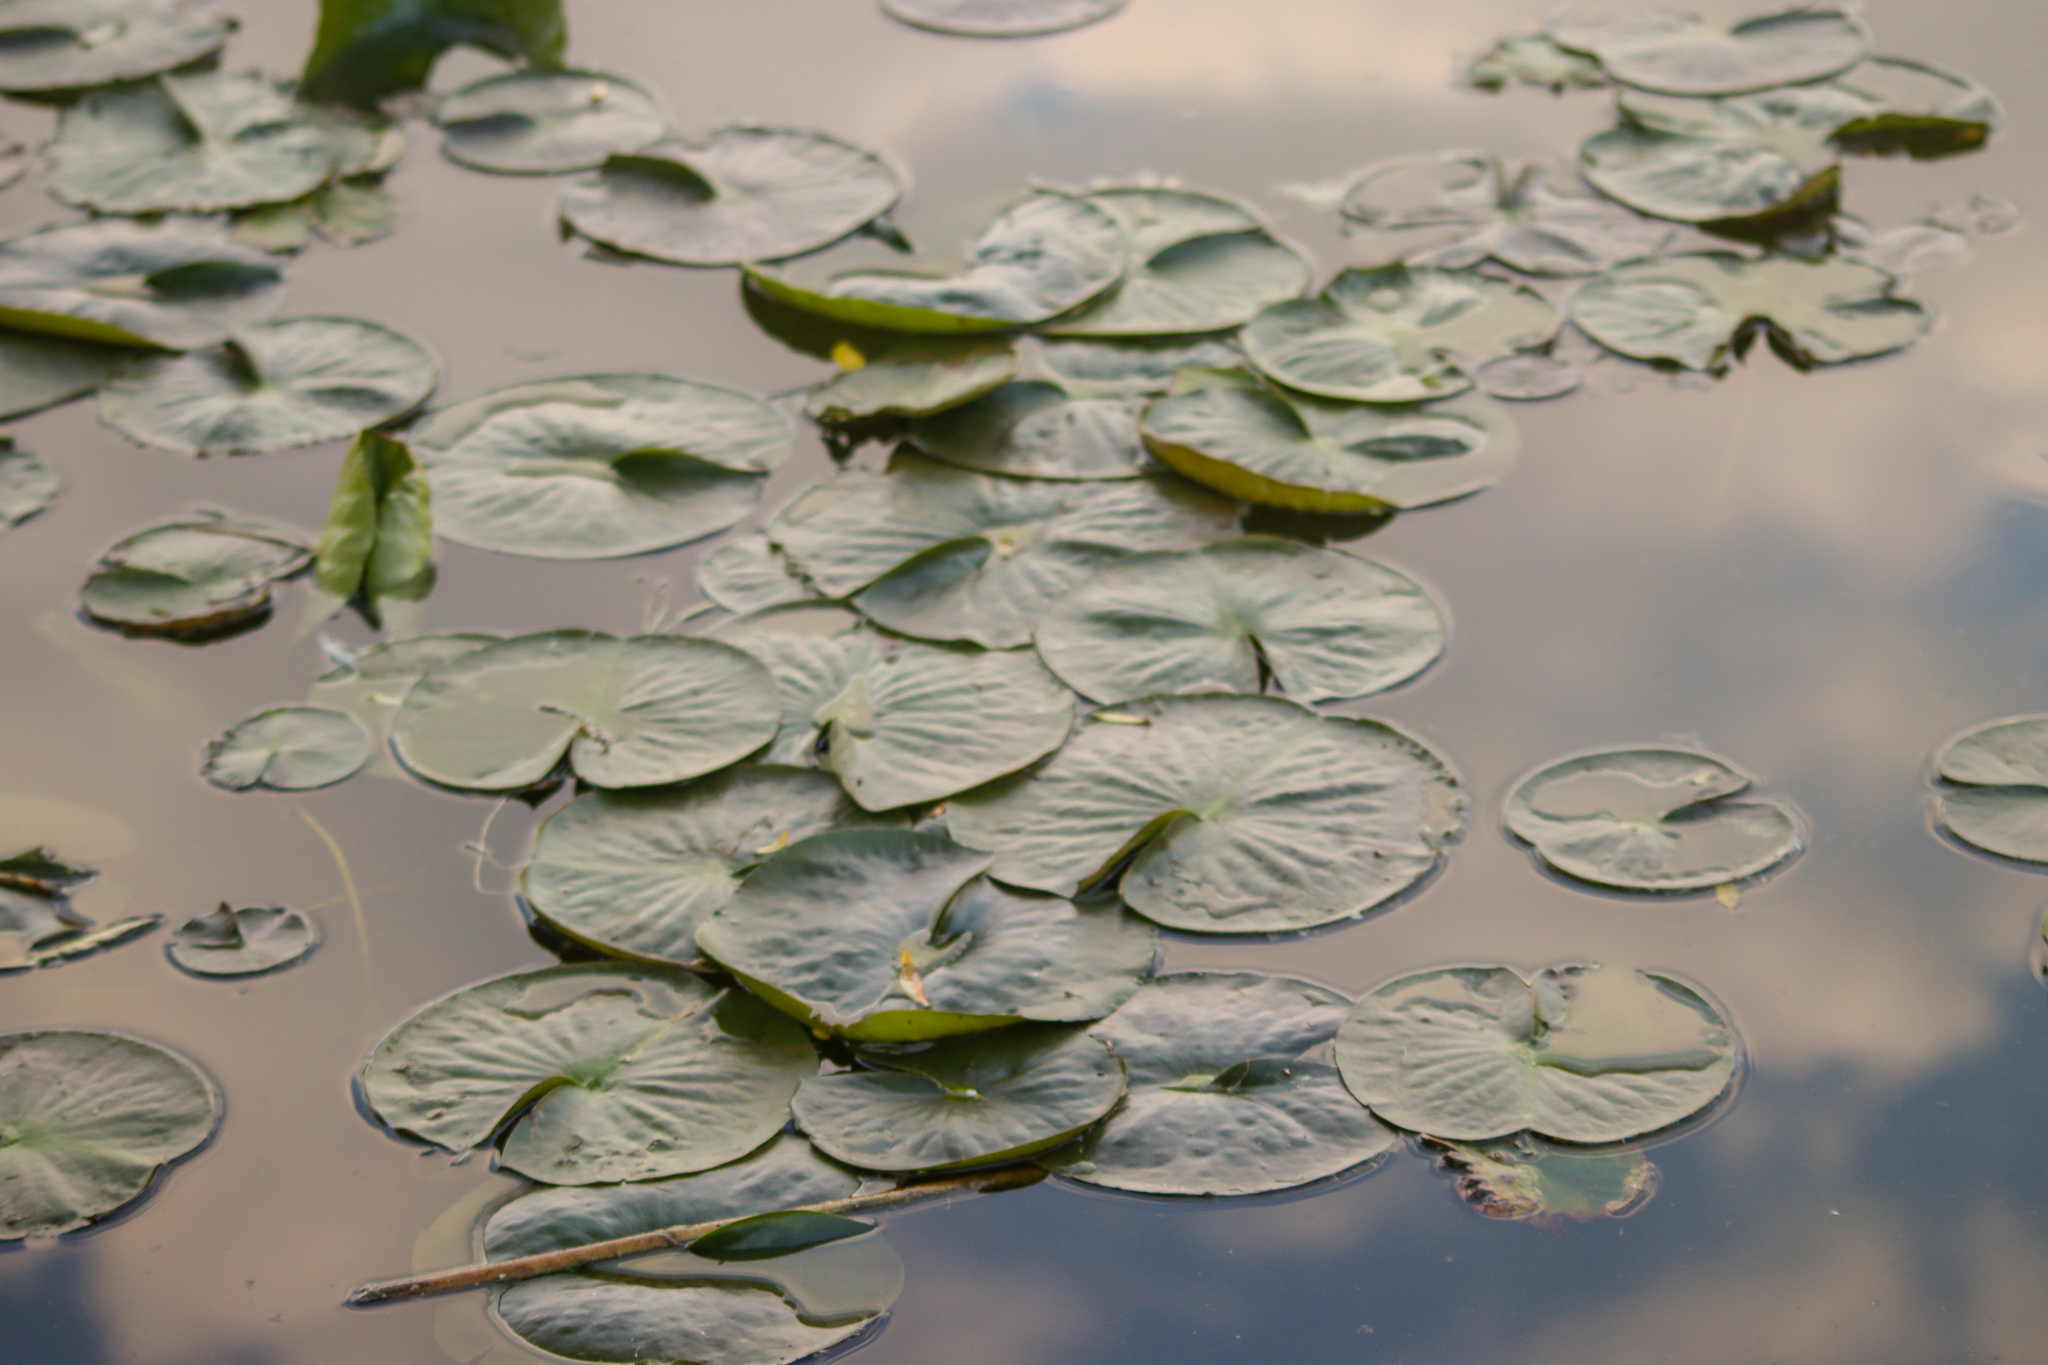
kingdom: Plantae
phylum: Tracheophyta
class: Magnoliopsida
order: Nymphaeales
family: Nymphaeaceae
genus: Nymphaea
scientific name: Nymphaea odorata
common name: Fragrant water-lily
